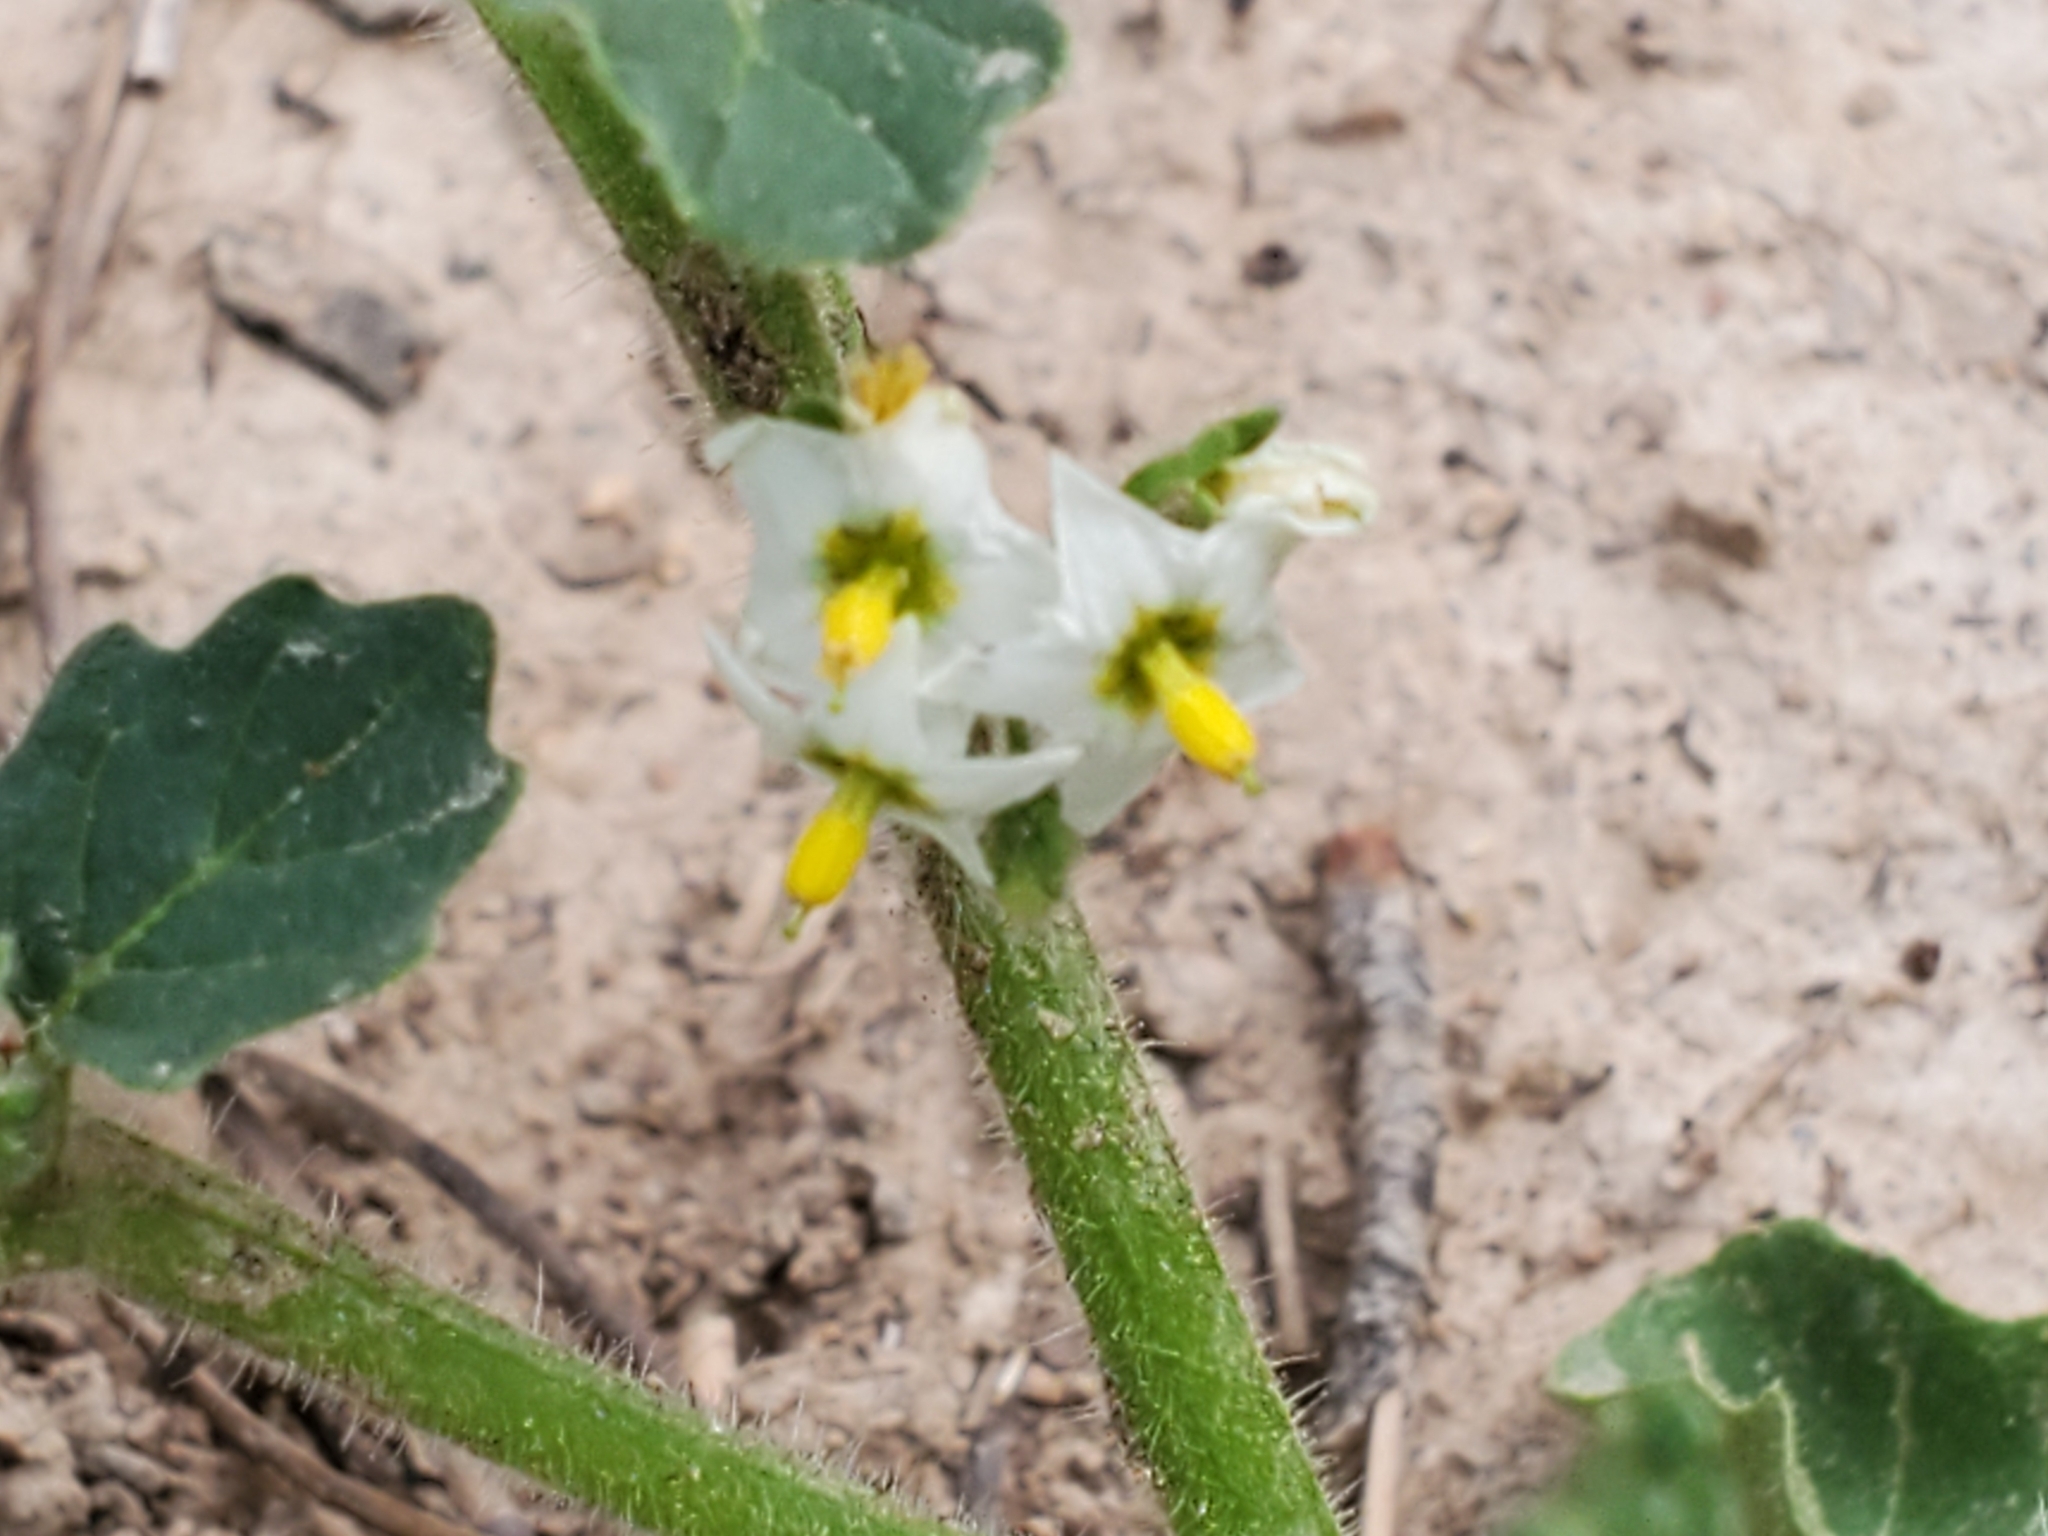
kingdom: Plantae
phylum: Tracheophyta
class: Magnoliopsida
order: Solanales
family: Solanaceae
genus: Solanum
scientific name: Solanum nitidibaccatum
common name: Hairy nightshade
